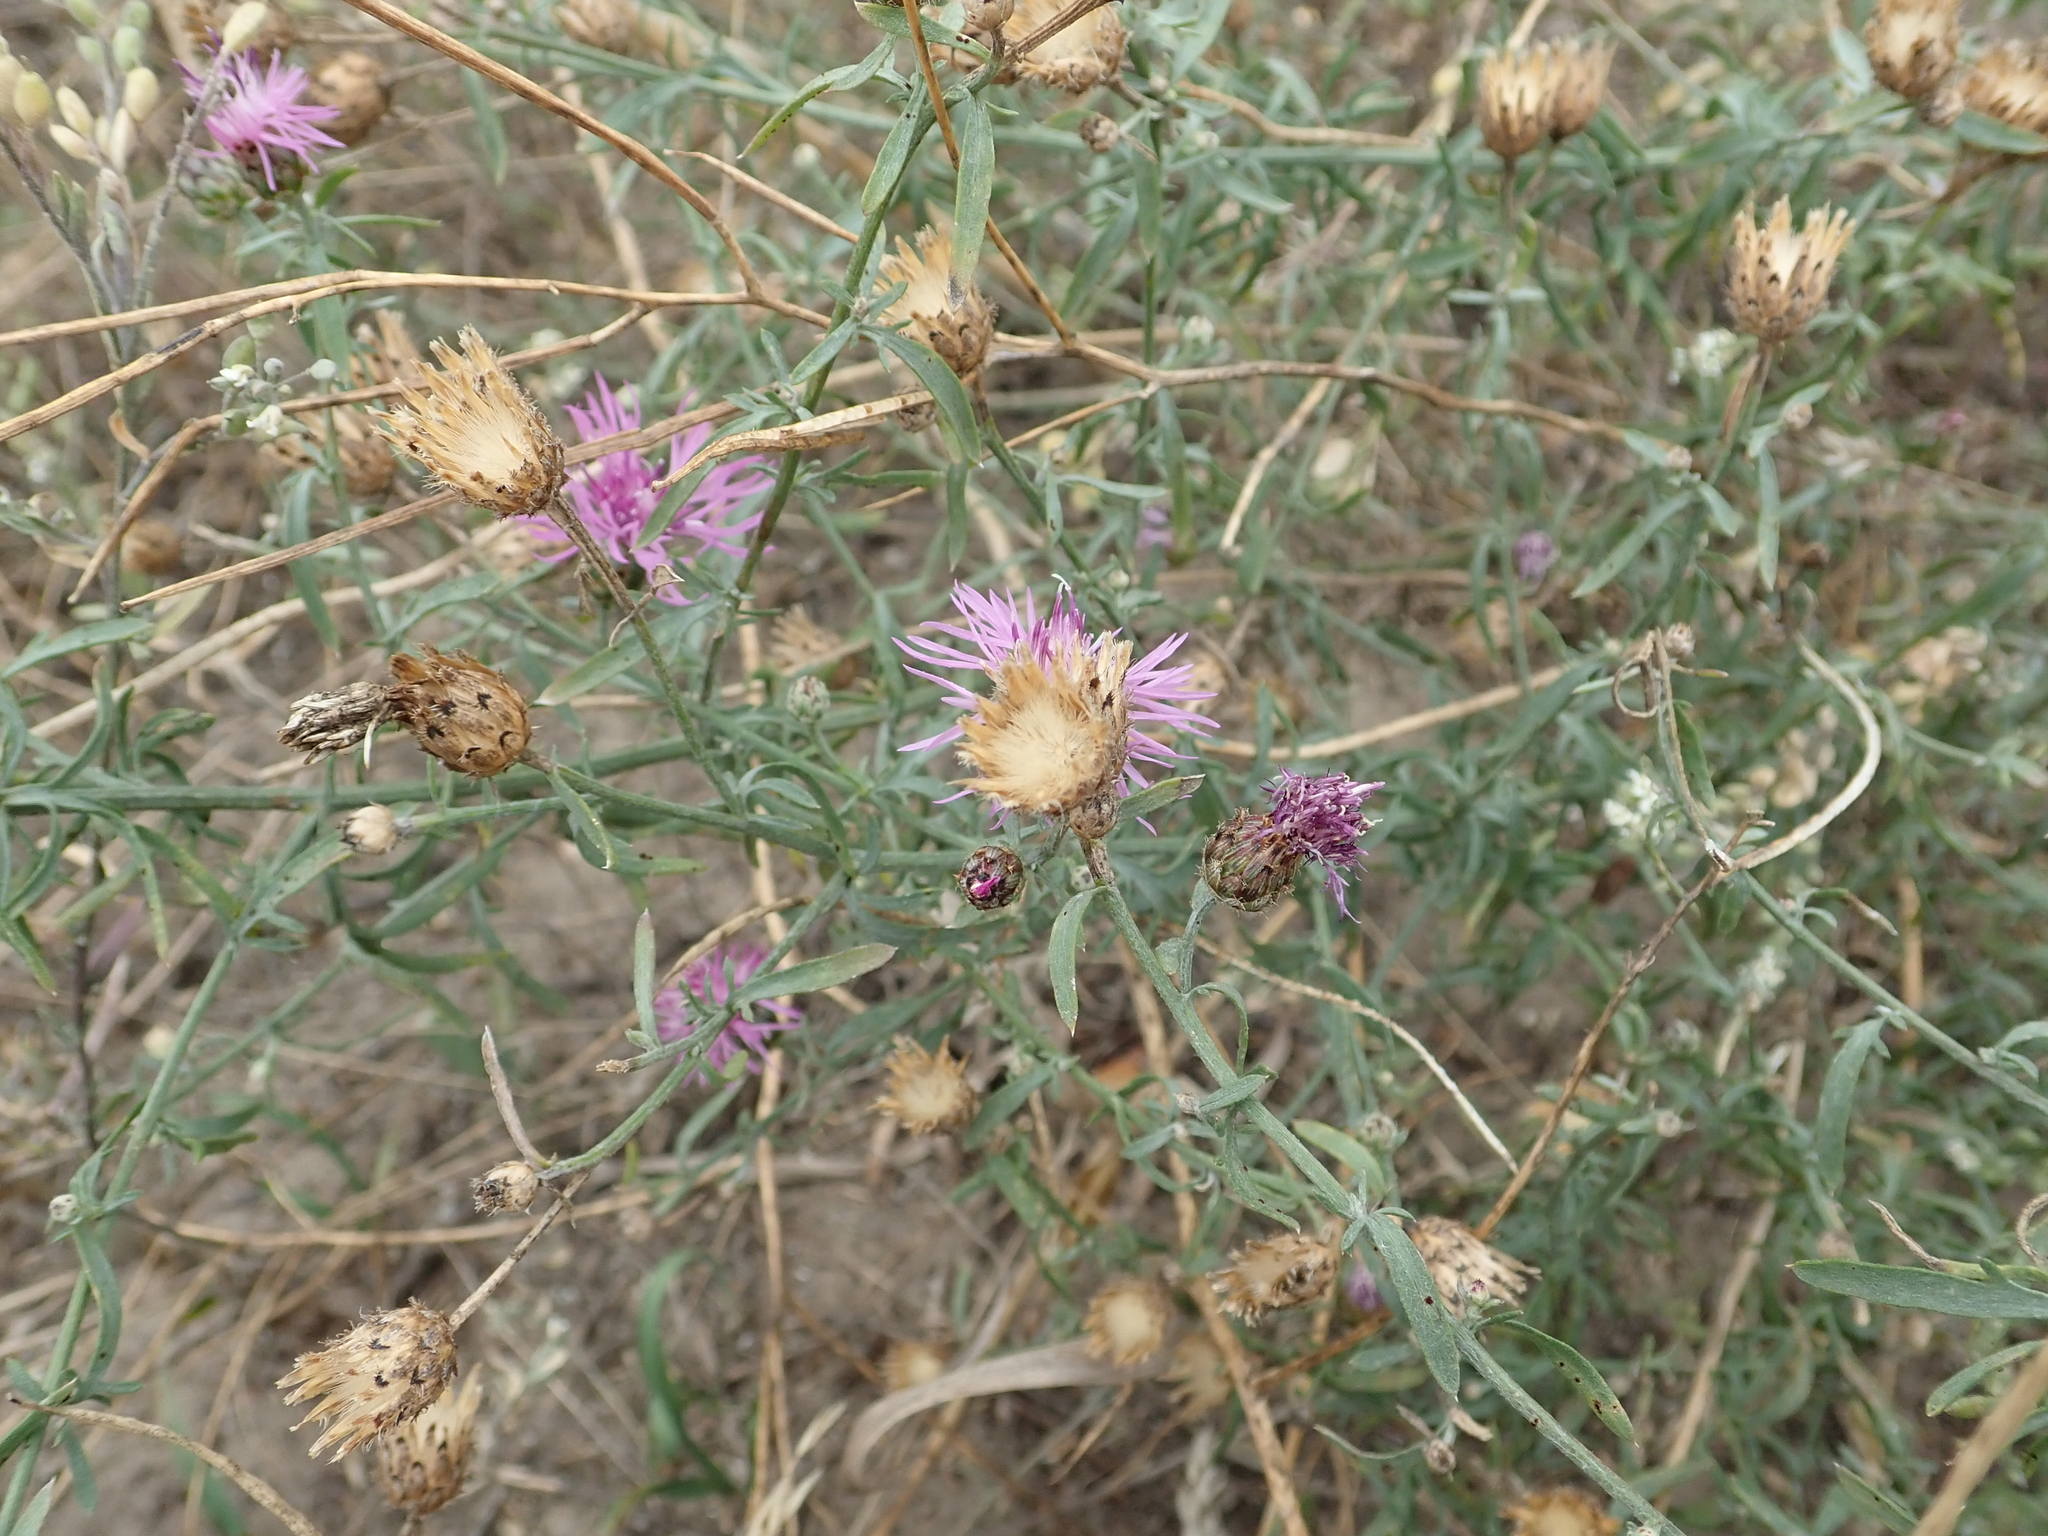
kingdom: Plantae
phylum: Tracheophyta
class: Magnoliopsida
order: Asterales
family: Asteraceae
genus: Centaurea
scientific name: Centaurea stoebe
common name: Spotted knapweed
